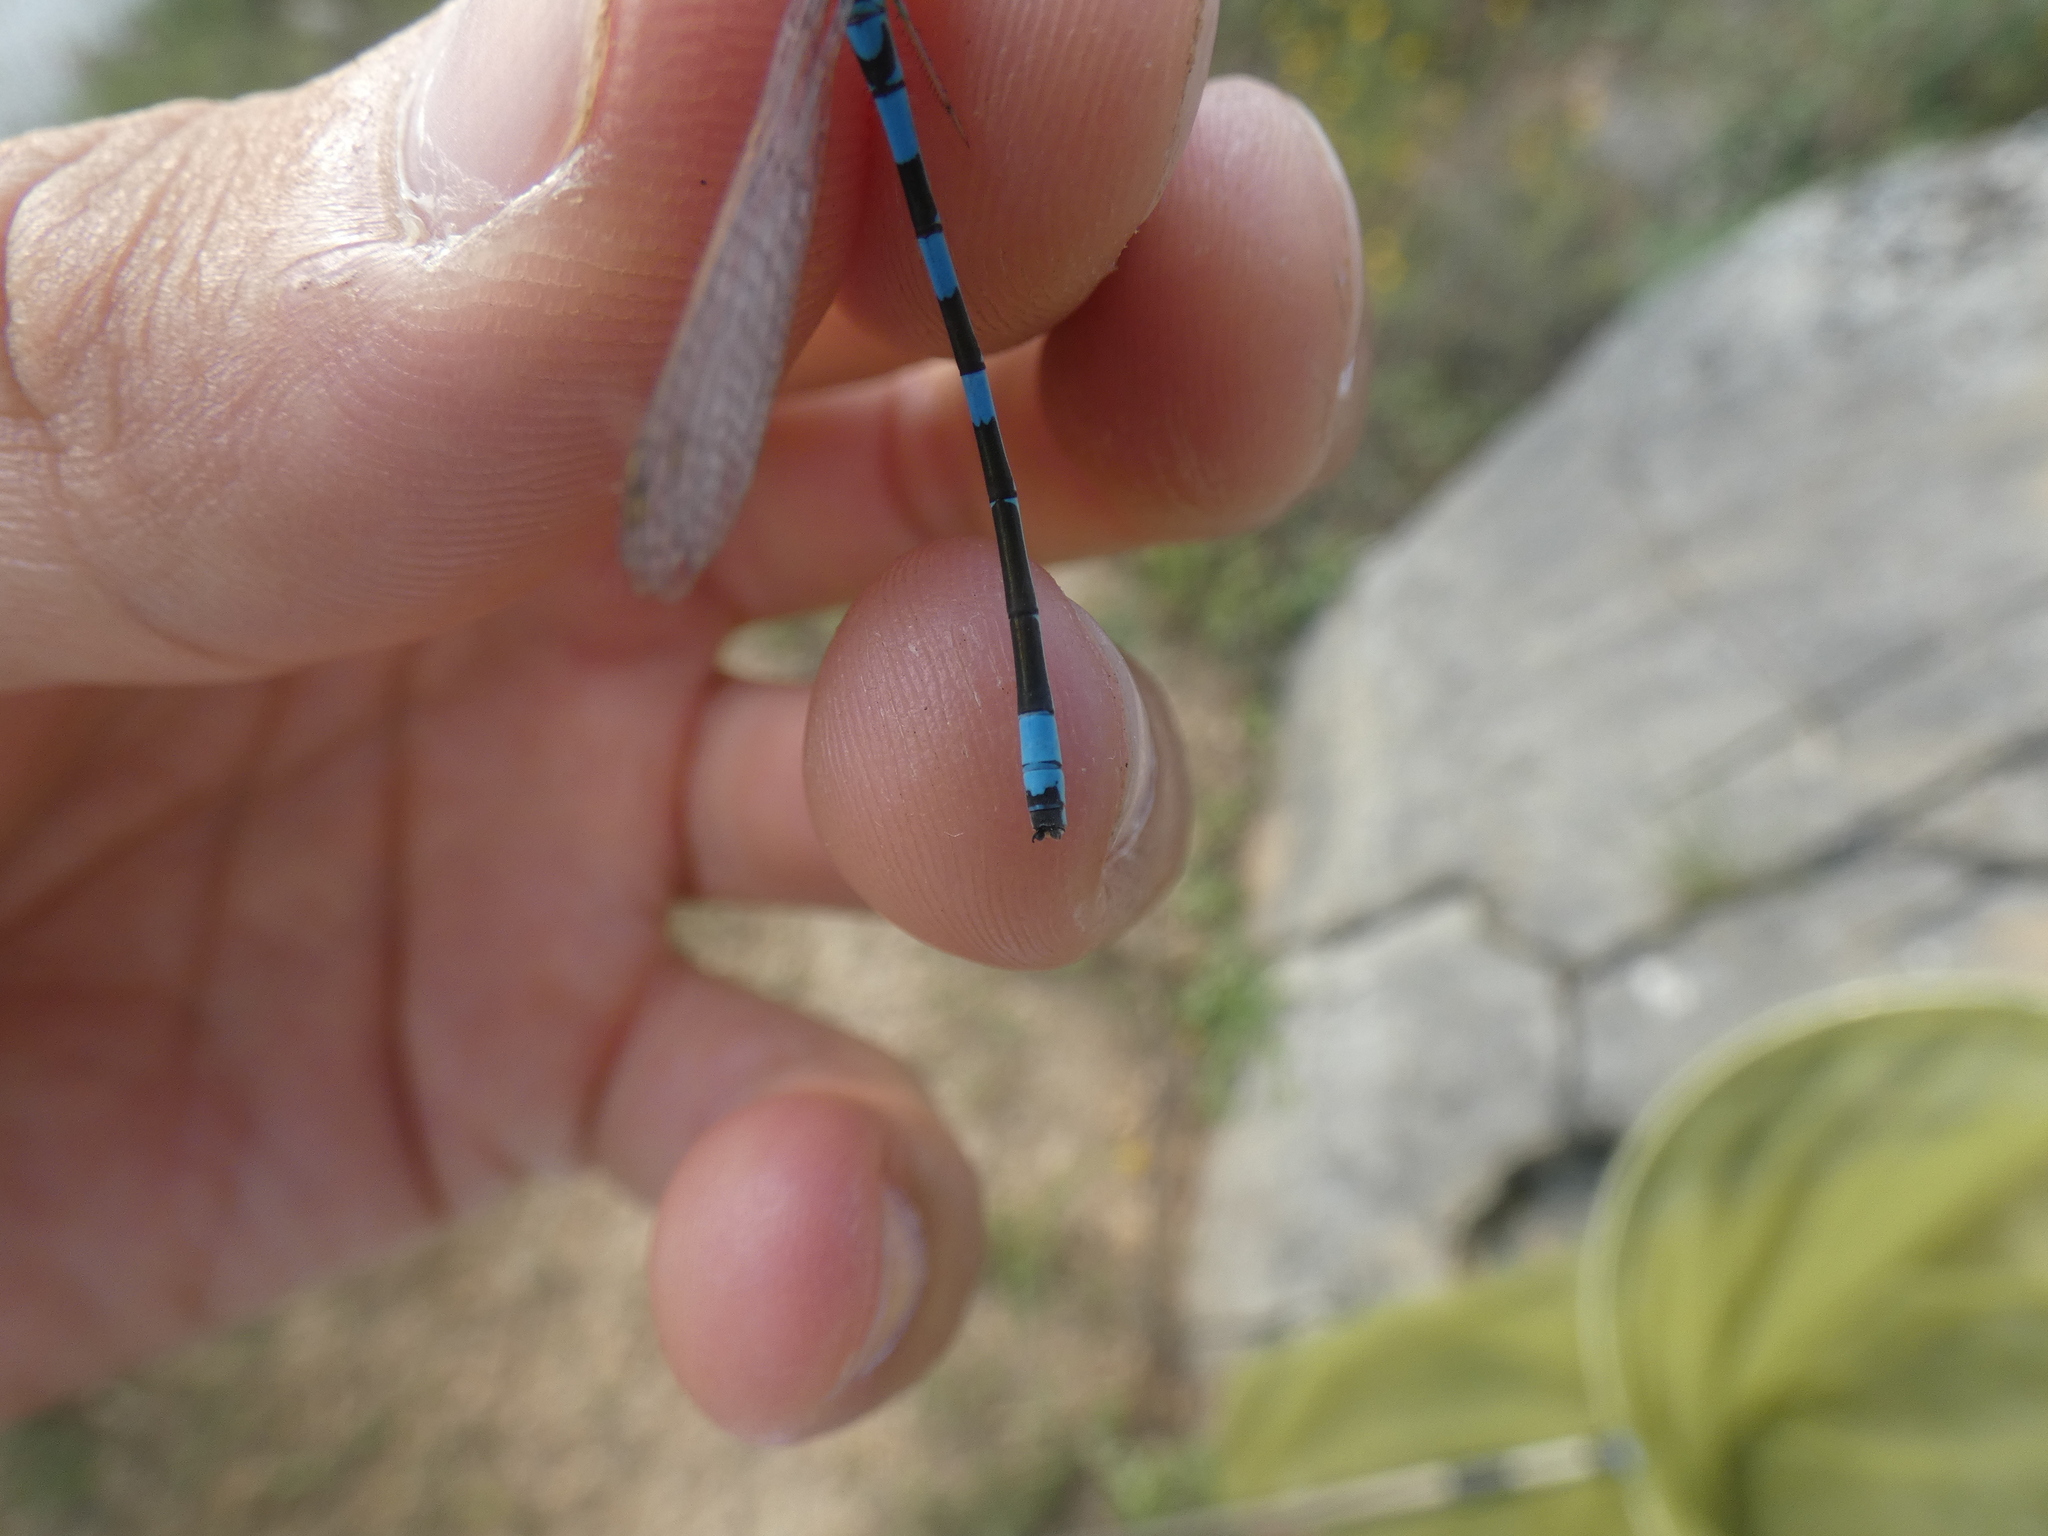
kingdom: Animalia
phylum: Arthropoda
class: Insecta
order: Odonata
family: Coenagrionidae
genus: Coenagrion
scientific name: Coenagrion scitulum
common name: Dainty bluet
